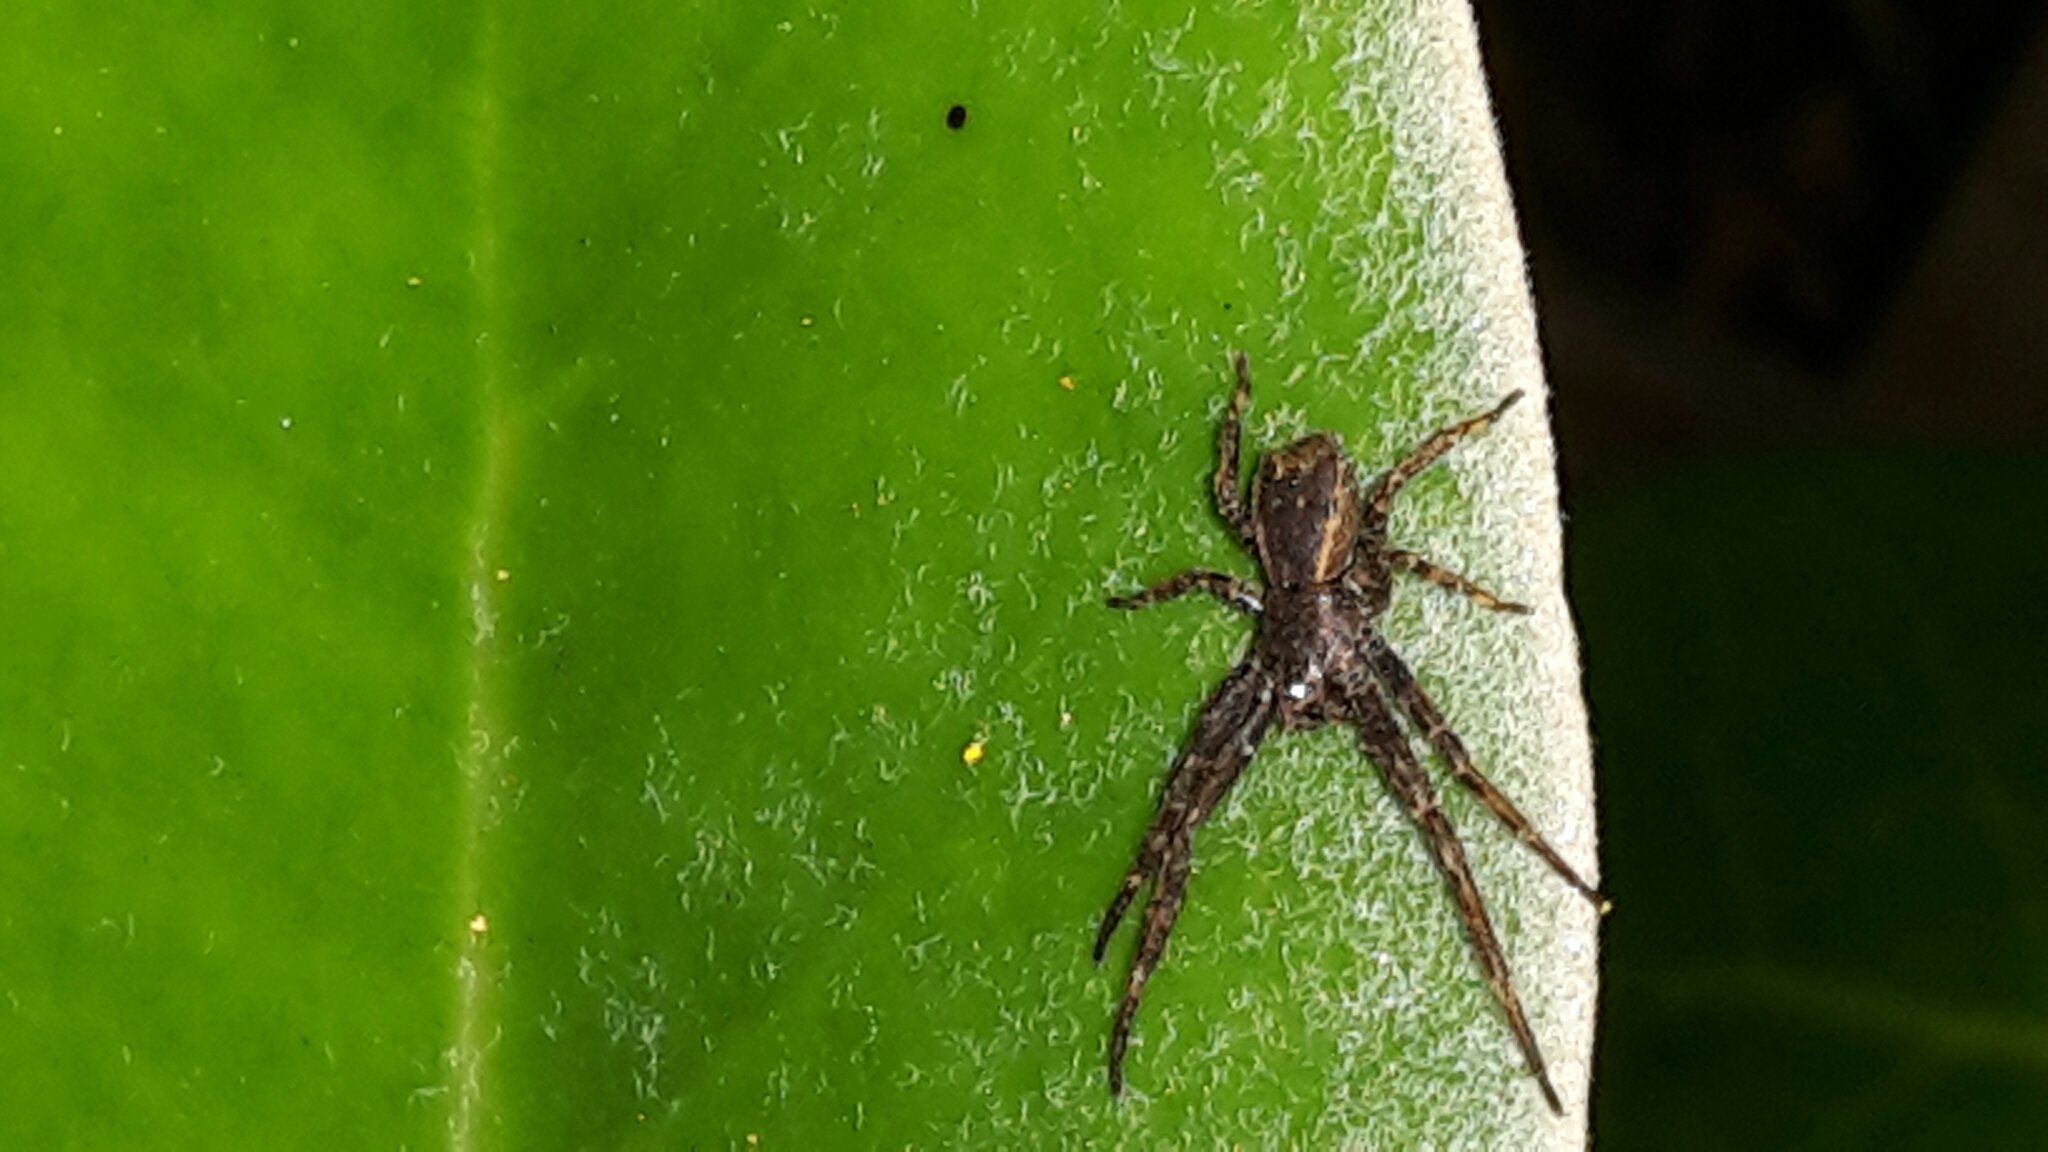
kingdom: Animalia
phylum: Arthropoda
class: Arachnida
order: Araneae
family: Thomisidae
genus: Sidymella
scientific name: Sidymella angulata
